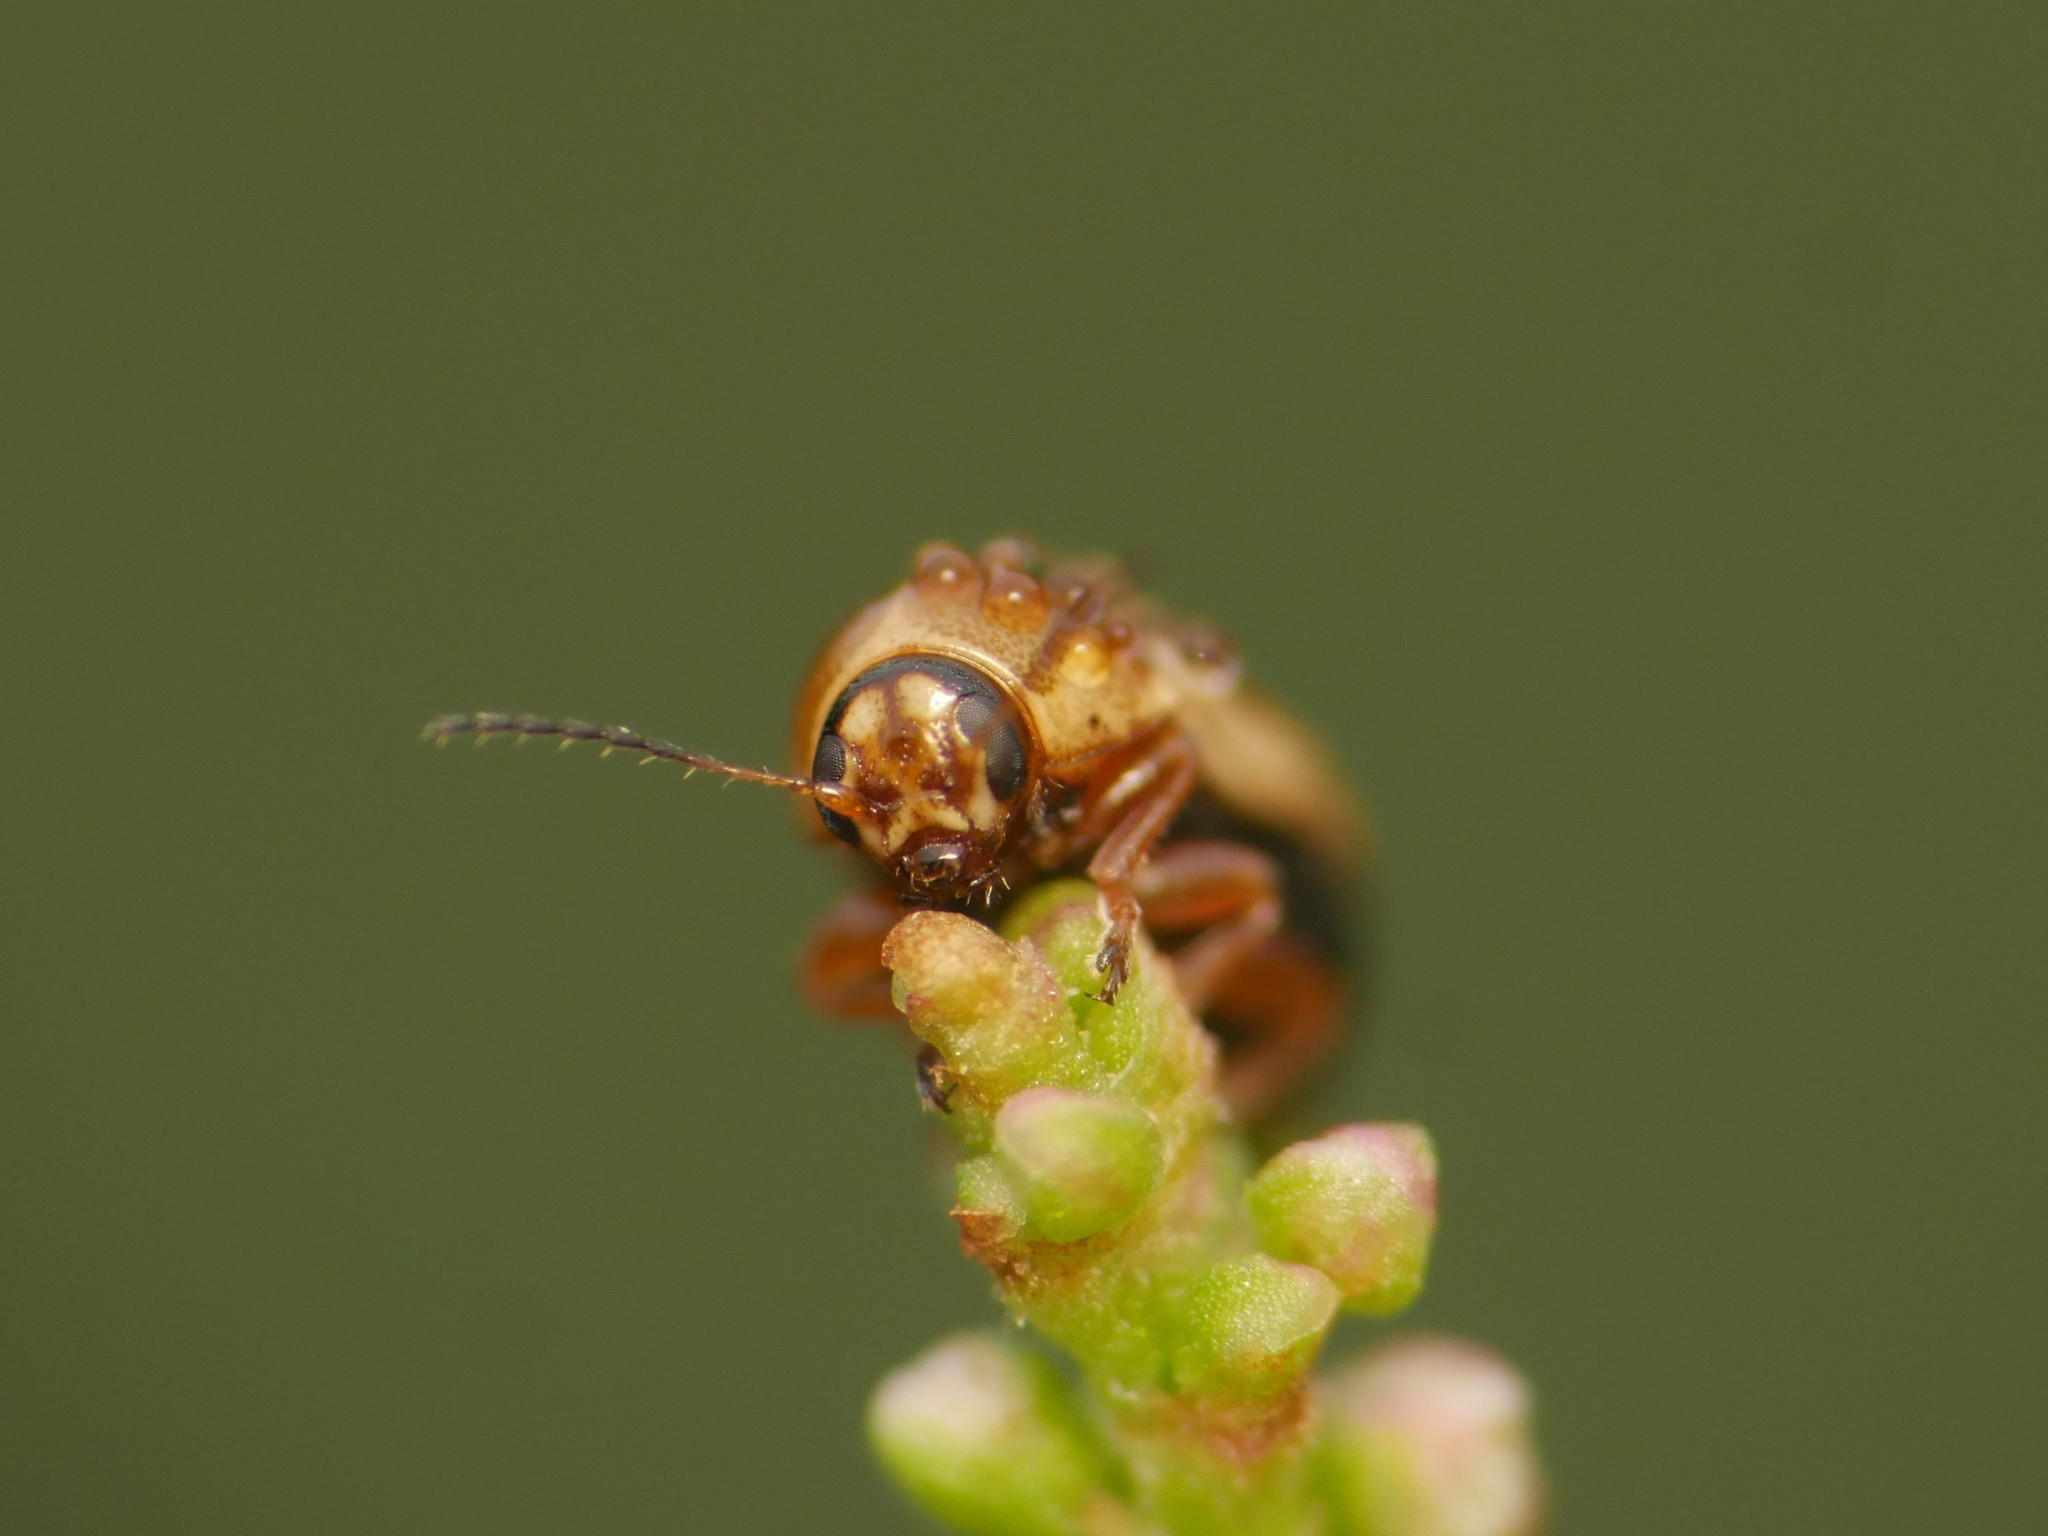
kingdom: Animalia
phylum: Arthropoda
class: Insecta
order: Coleoptera
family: Chrysomelidae
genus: Cryptocephalus
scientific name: Cryptocephalus fulvus
